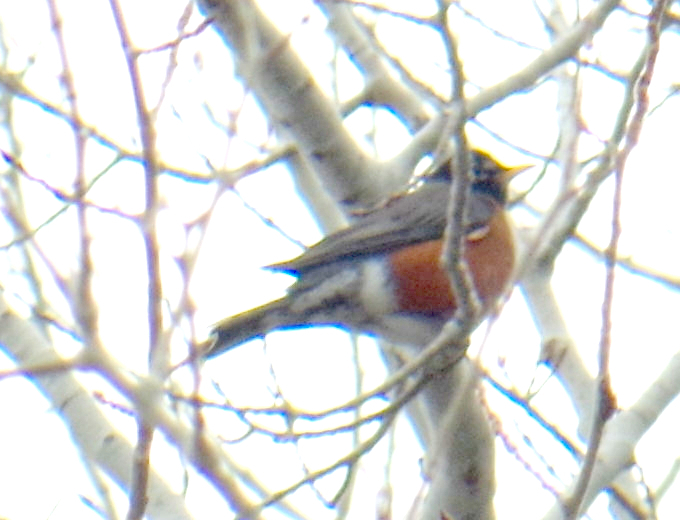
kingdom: Animalia
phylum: Chordata
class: Aves
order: Passeriformes
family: Turdidae
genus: Turdus
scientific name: Turdus migratorius
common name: American robin
